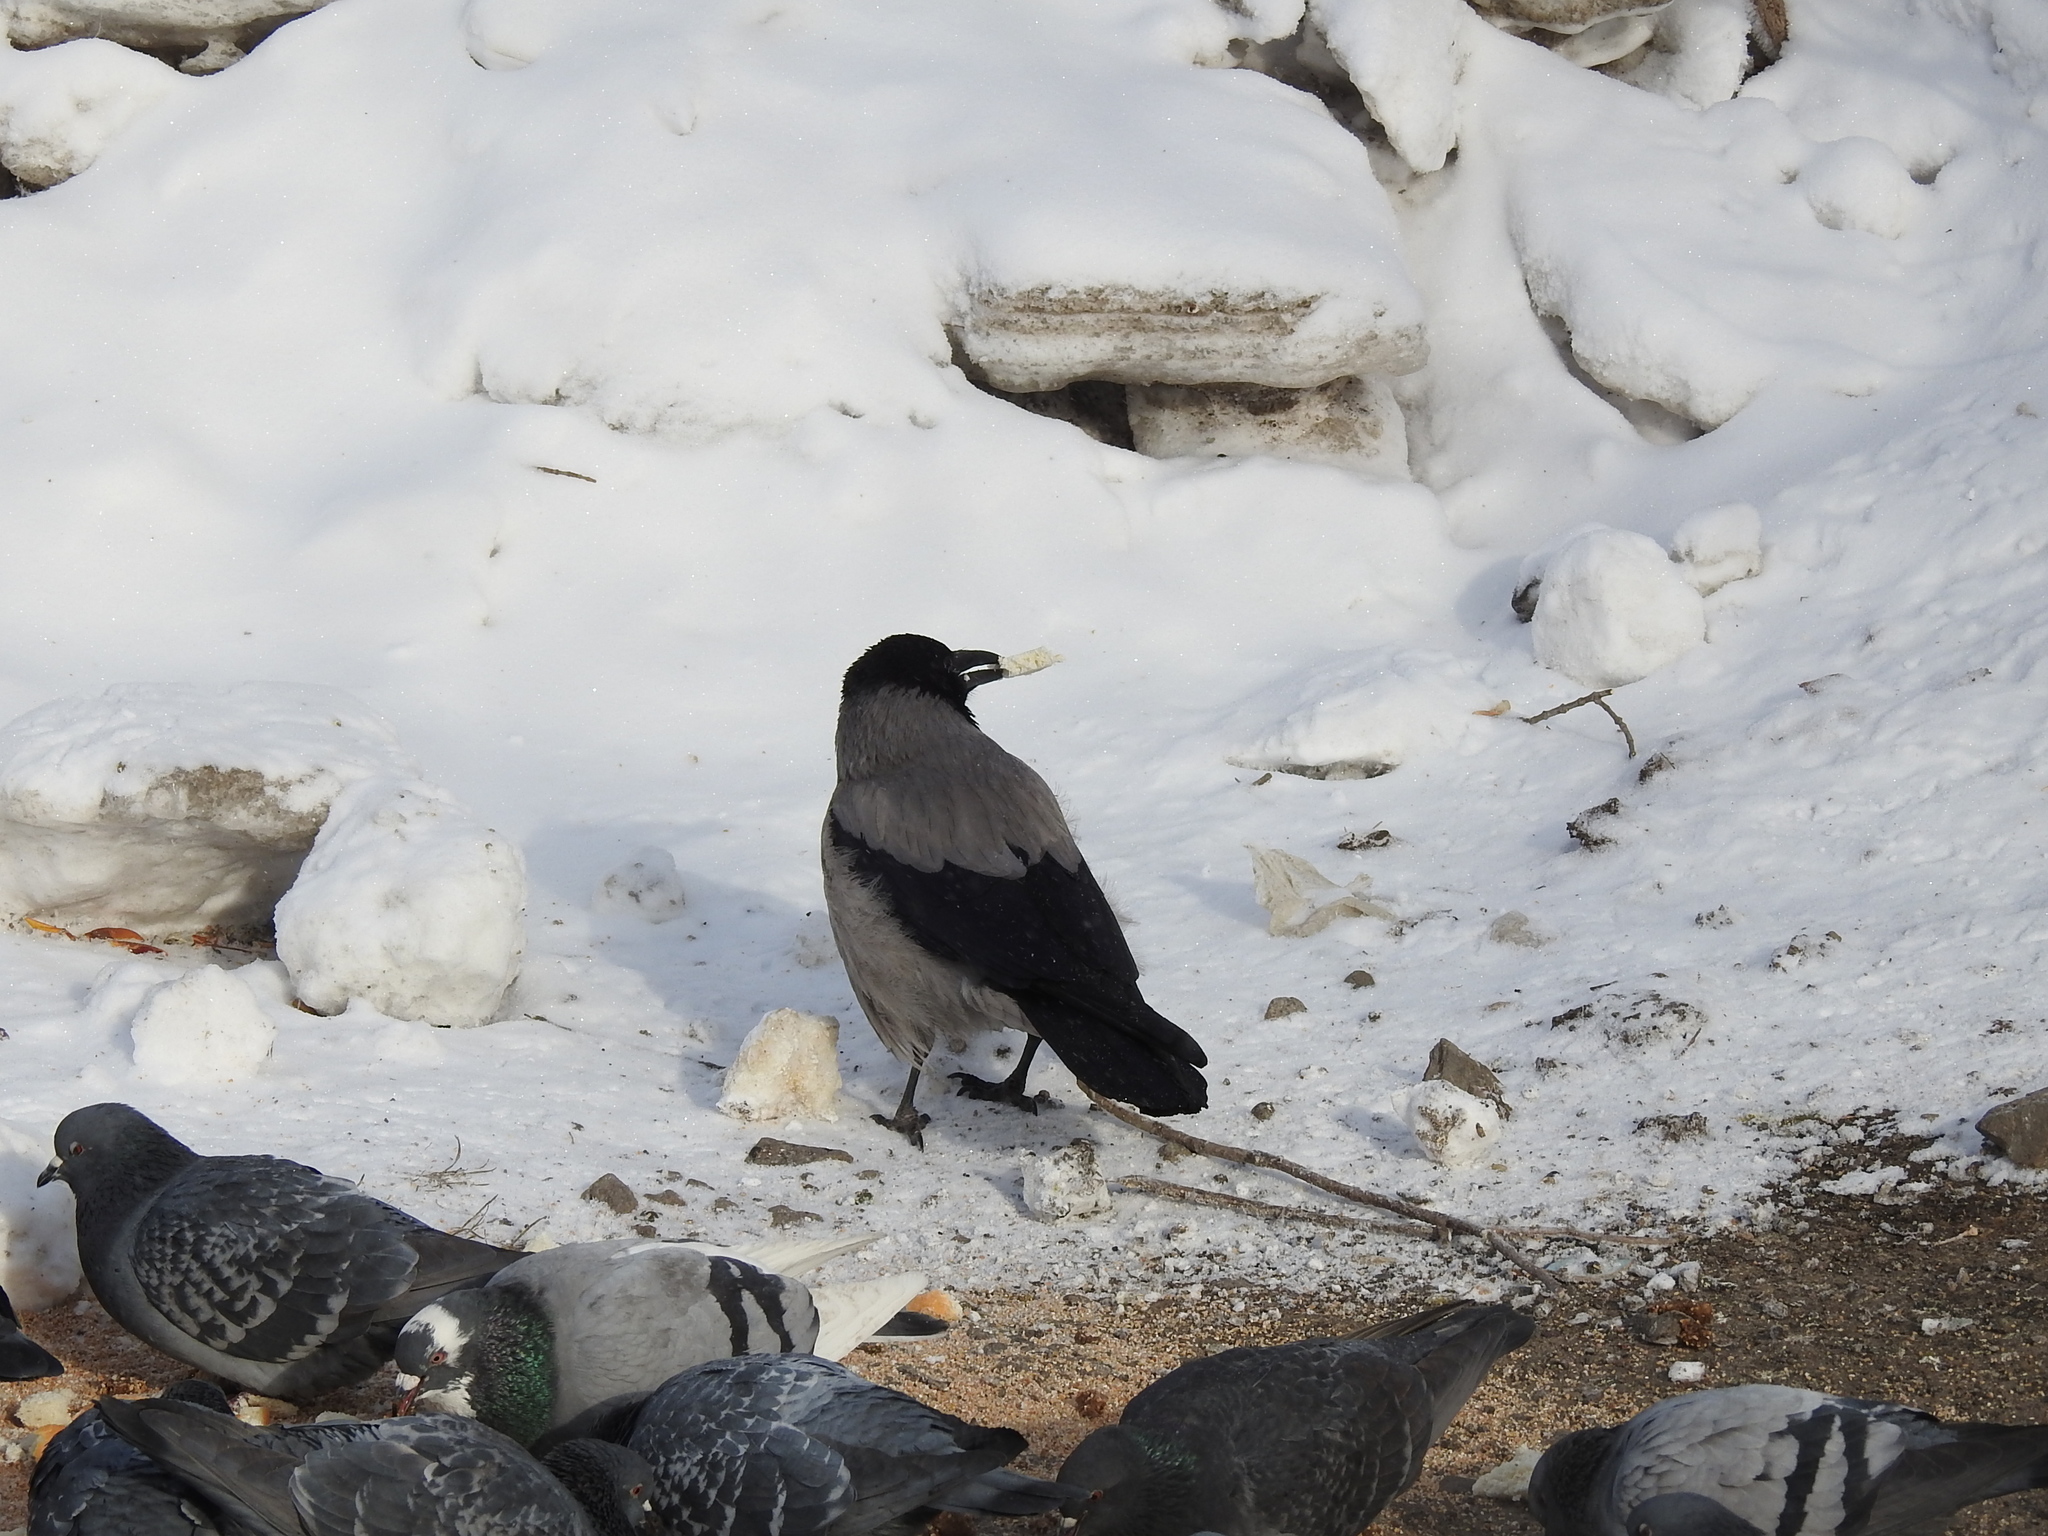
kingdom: Animalia
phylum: Chordata
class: Aves
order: Passeriformes
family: Corvidae
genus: Corvus
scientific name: Corvus cornix
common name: Hooded crow
